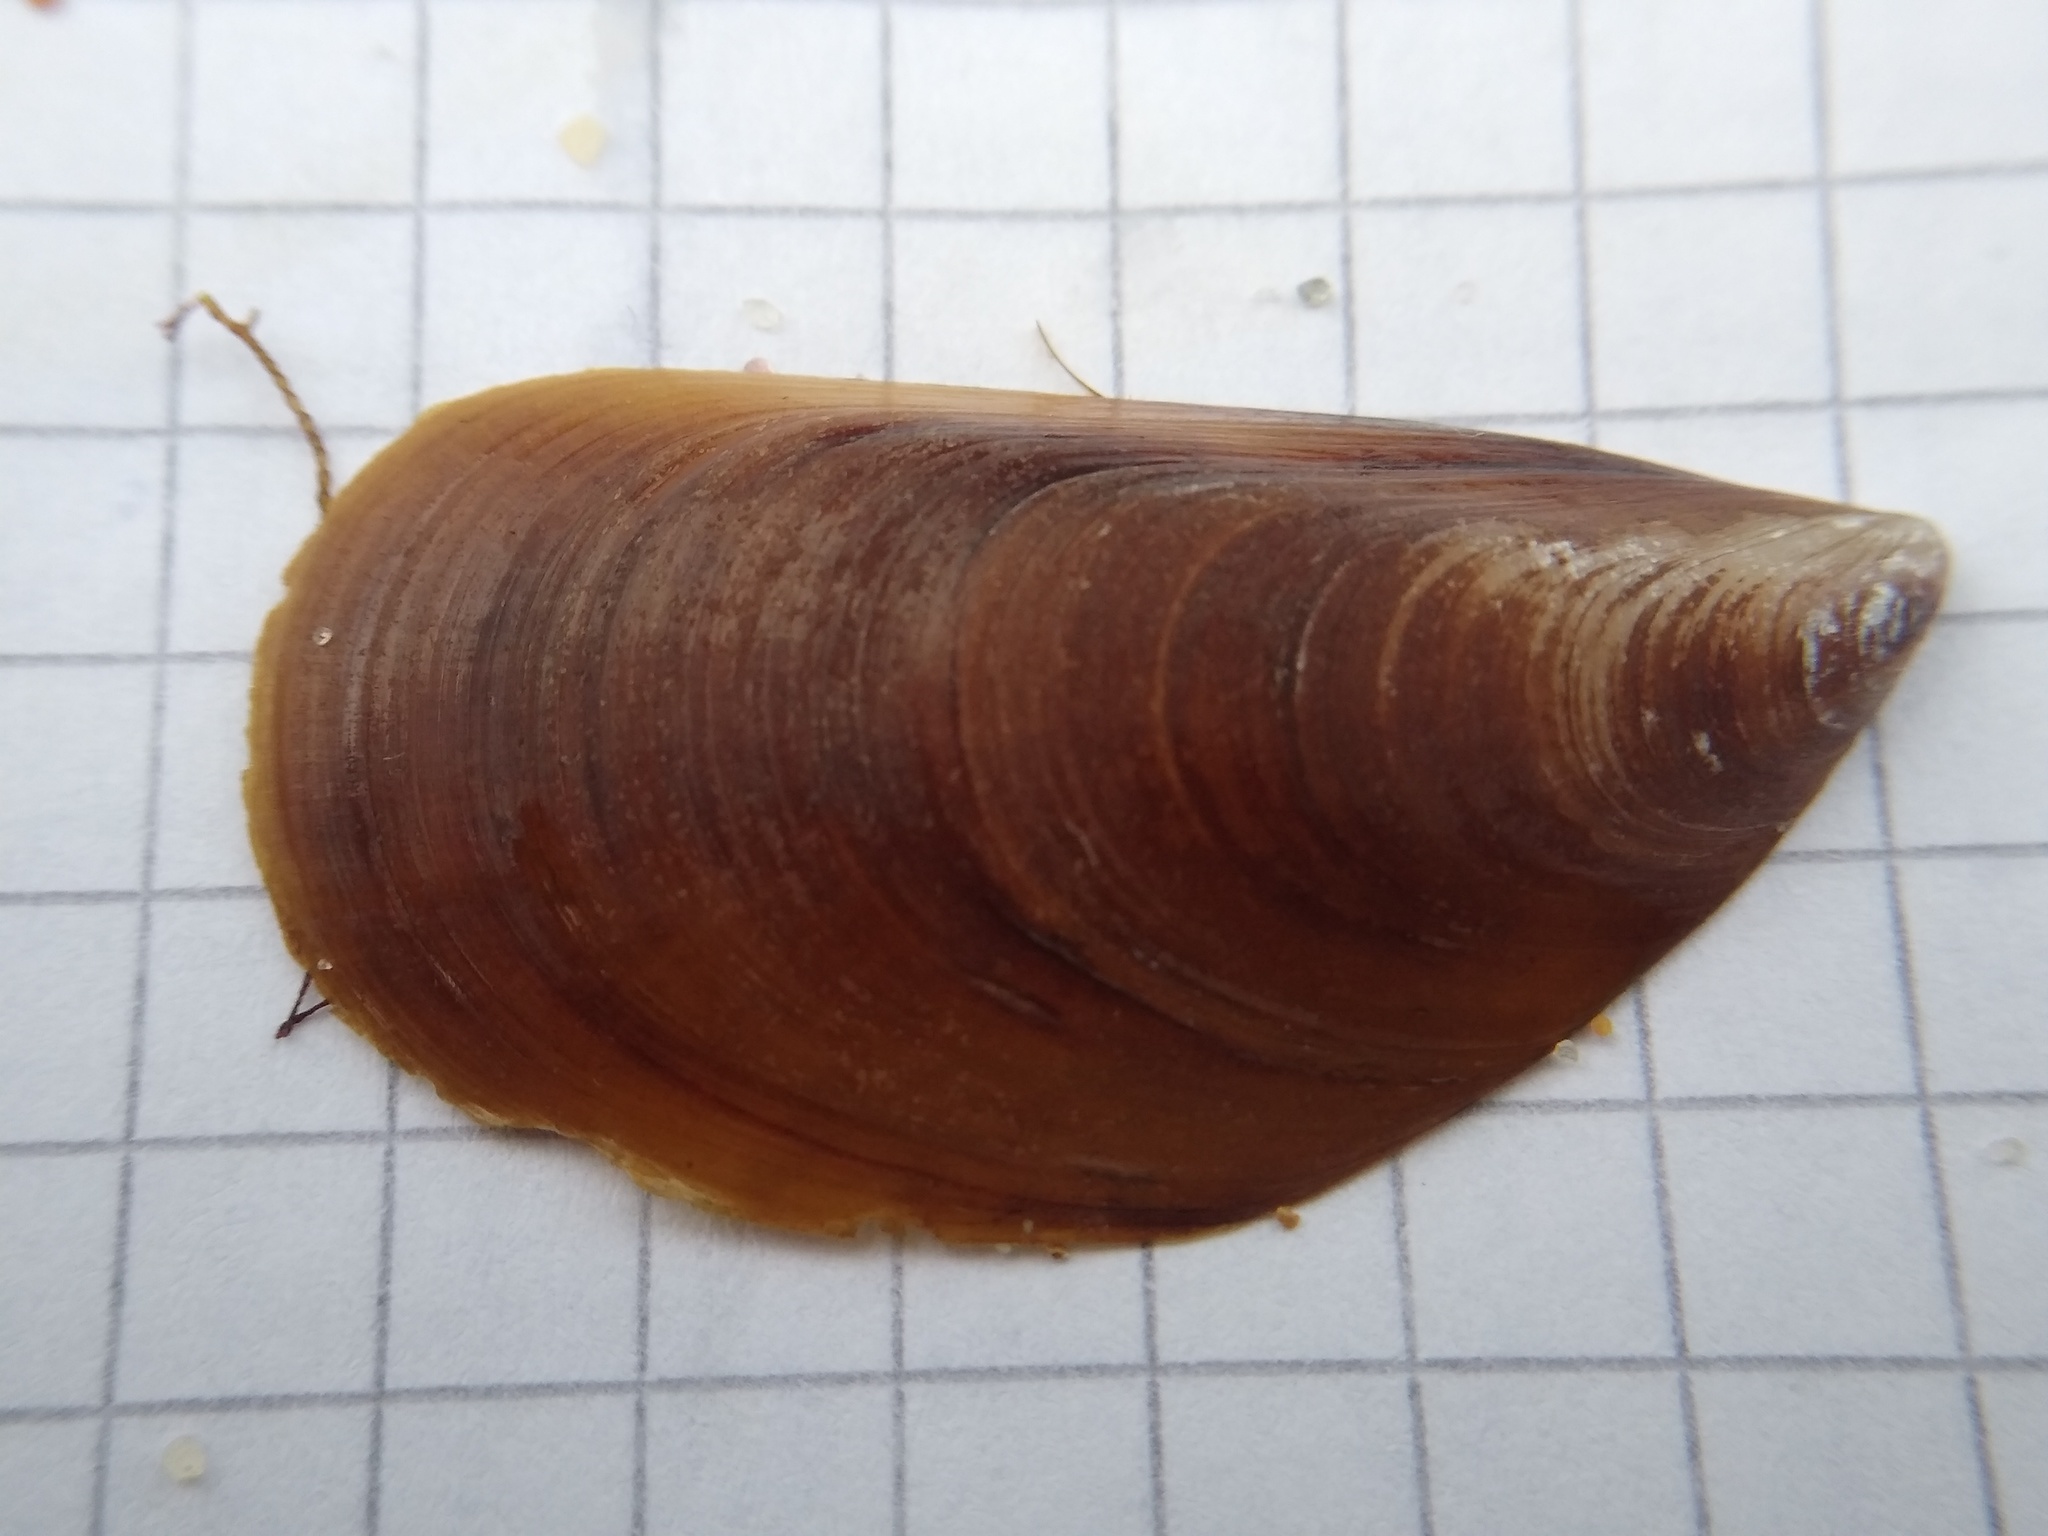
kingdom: Animalia
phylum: Mollusca
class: Bivalvia
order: Mytilida
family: Mytilidae
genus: Mytilus
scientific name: Mytilus galloprovincialis
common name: Mediterranean mussel
